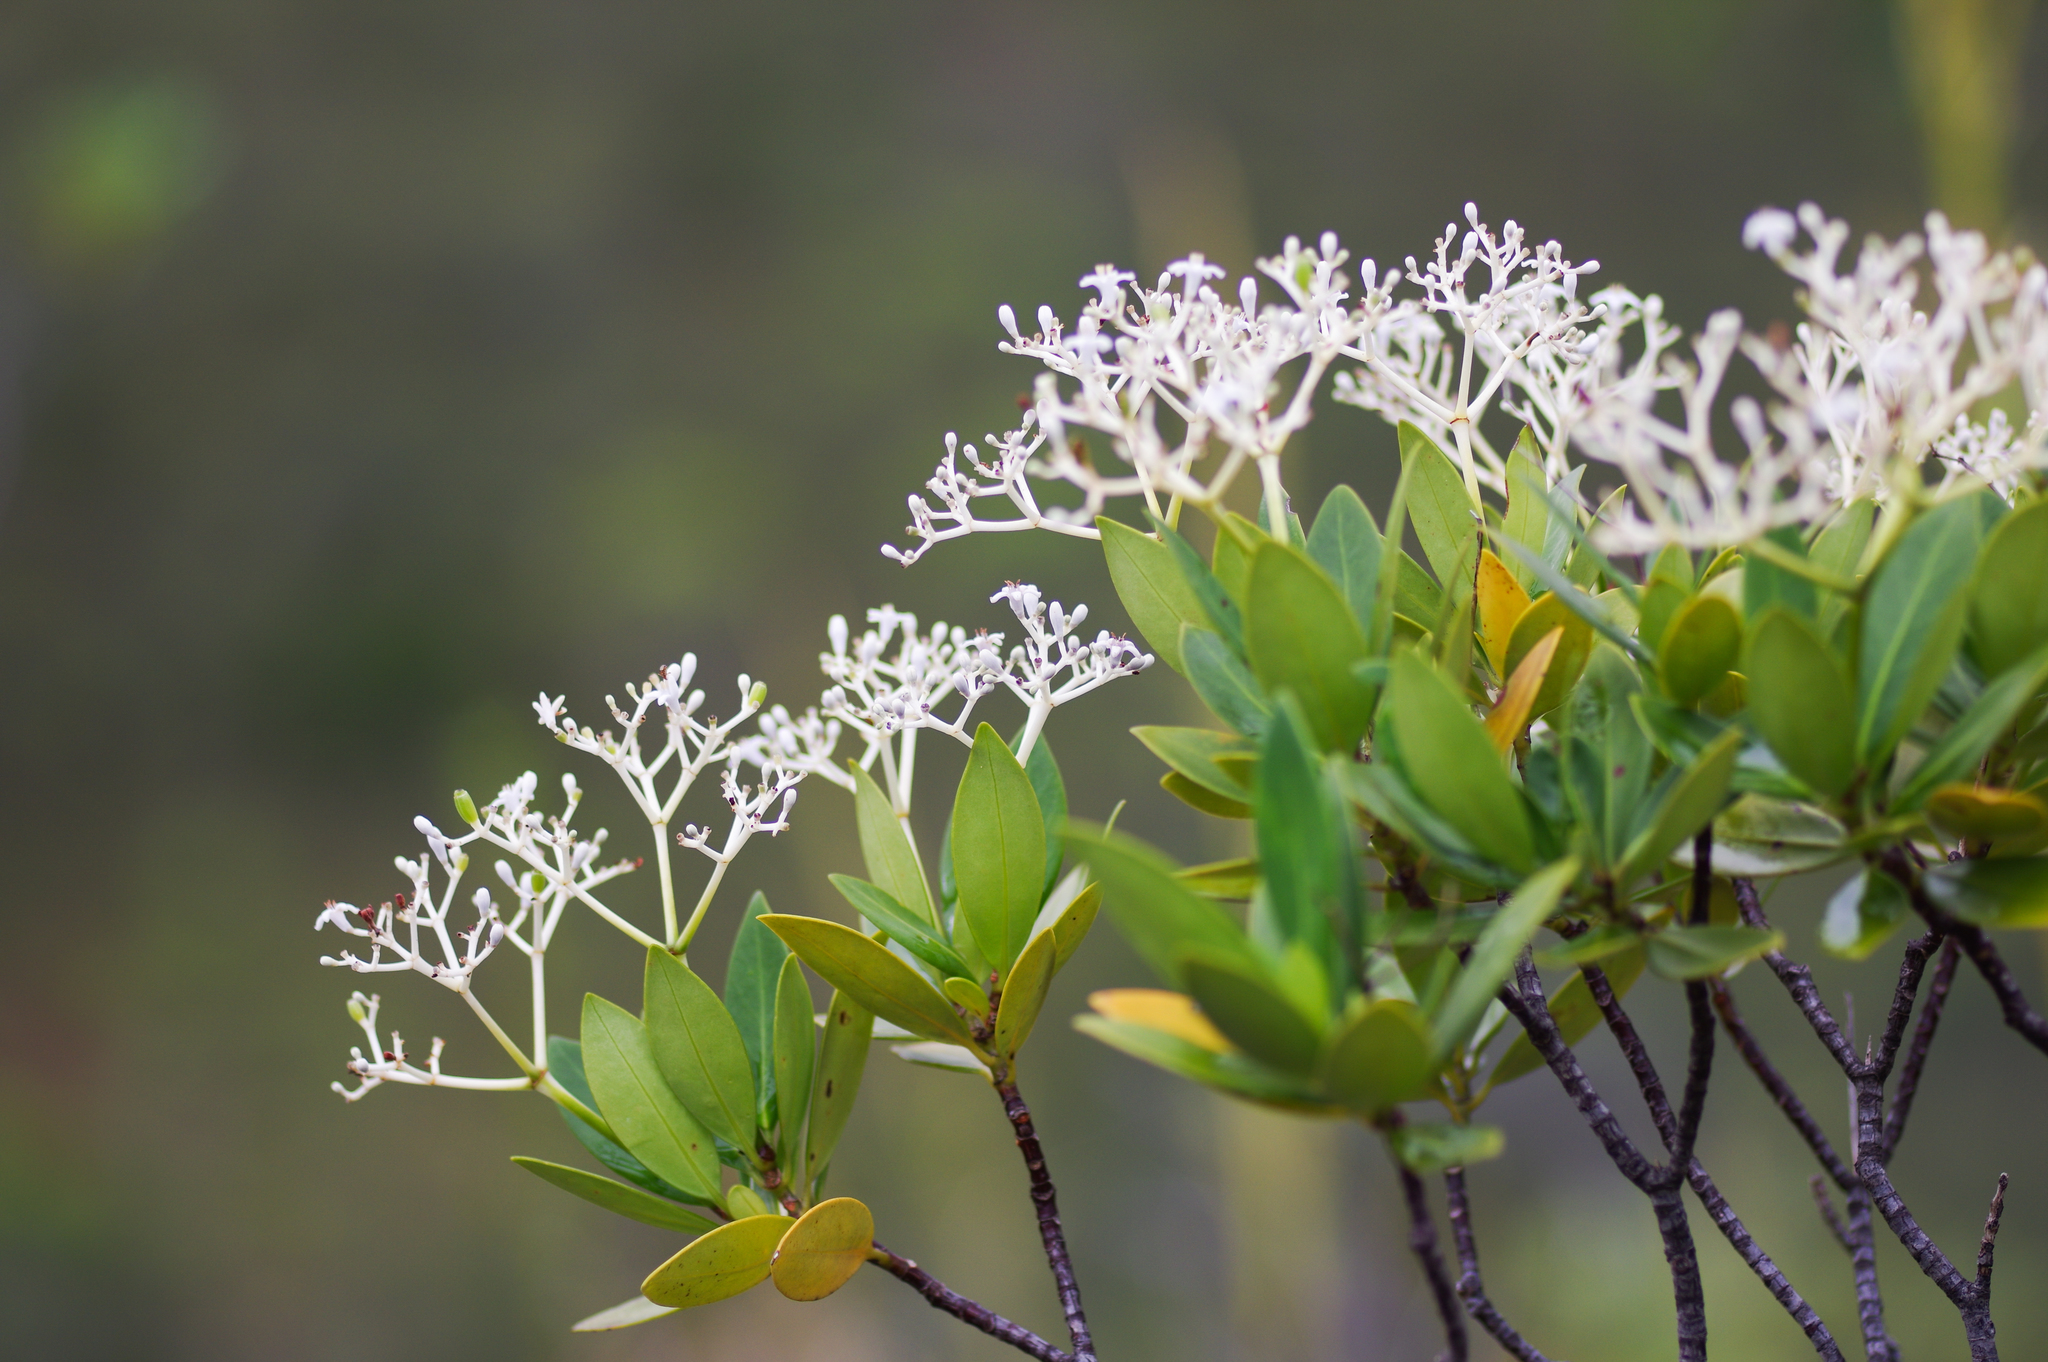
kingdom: Plantae
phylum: Tracheophyta
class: Magnoliopsida
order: Gentianales
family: Rubiaceae
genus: Psychotria
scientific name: Psychotria rupicola
